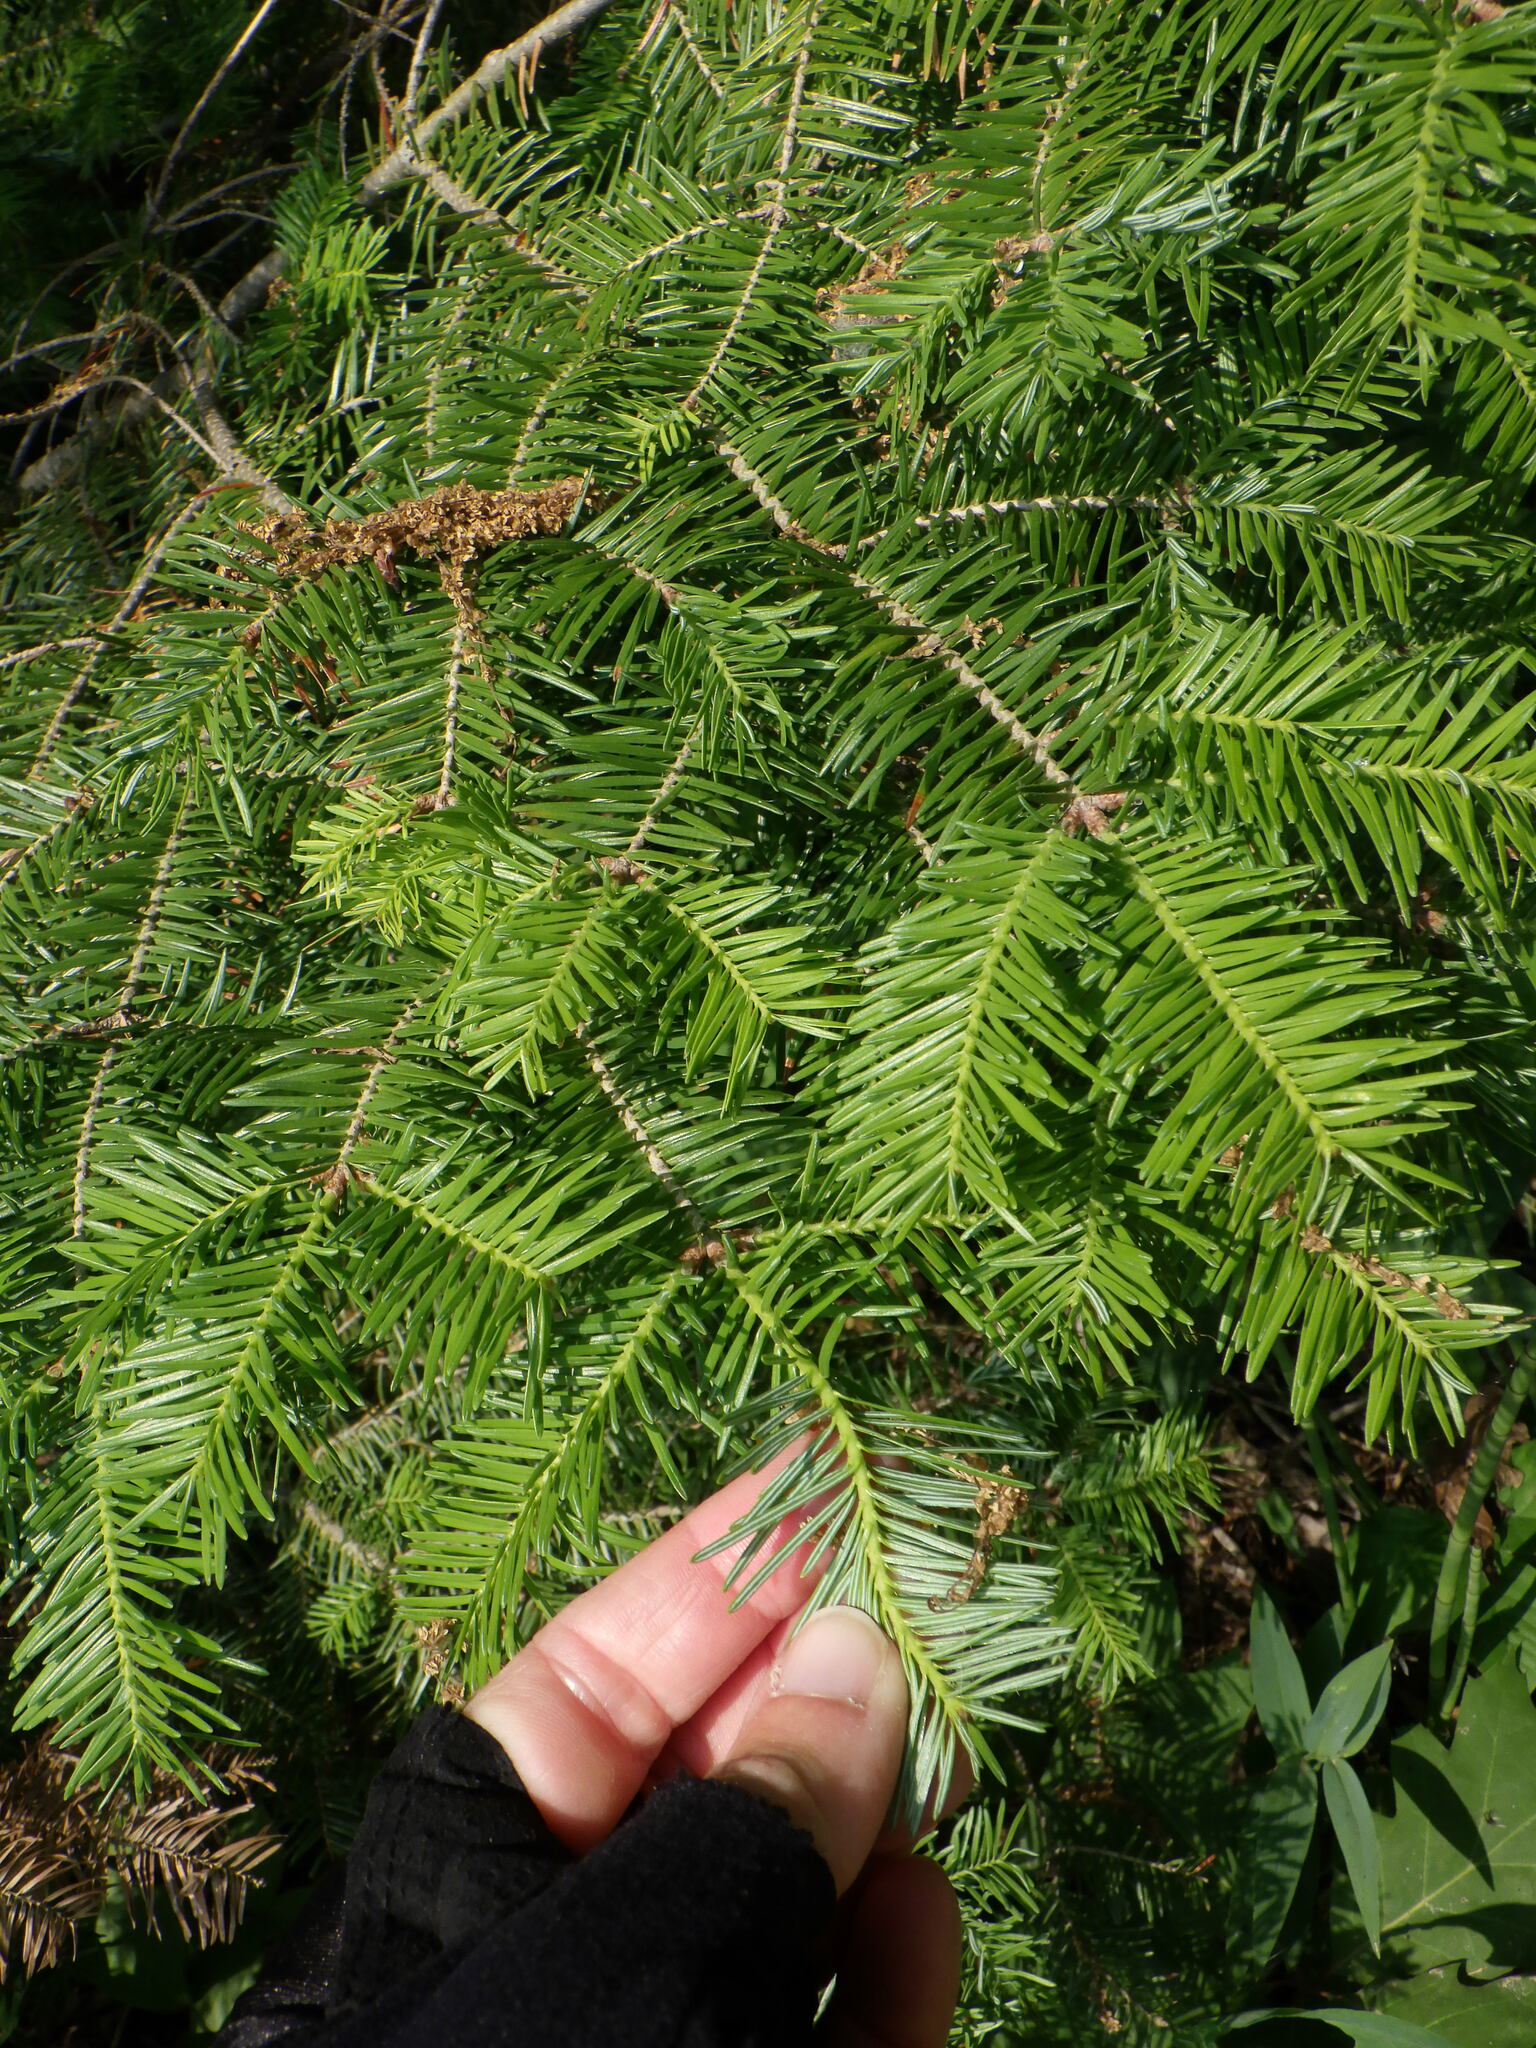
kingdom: Plantae
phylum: Tracheophyta
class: Pinopsida
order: Pinales
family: Pinaceae
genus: Abies
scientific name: Abies balsamea
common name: Balsam fir
